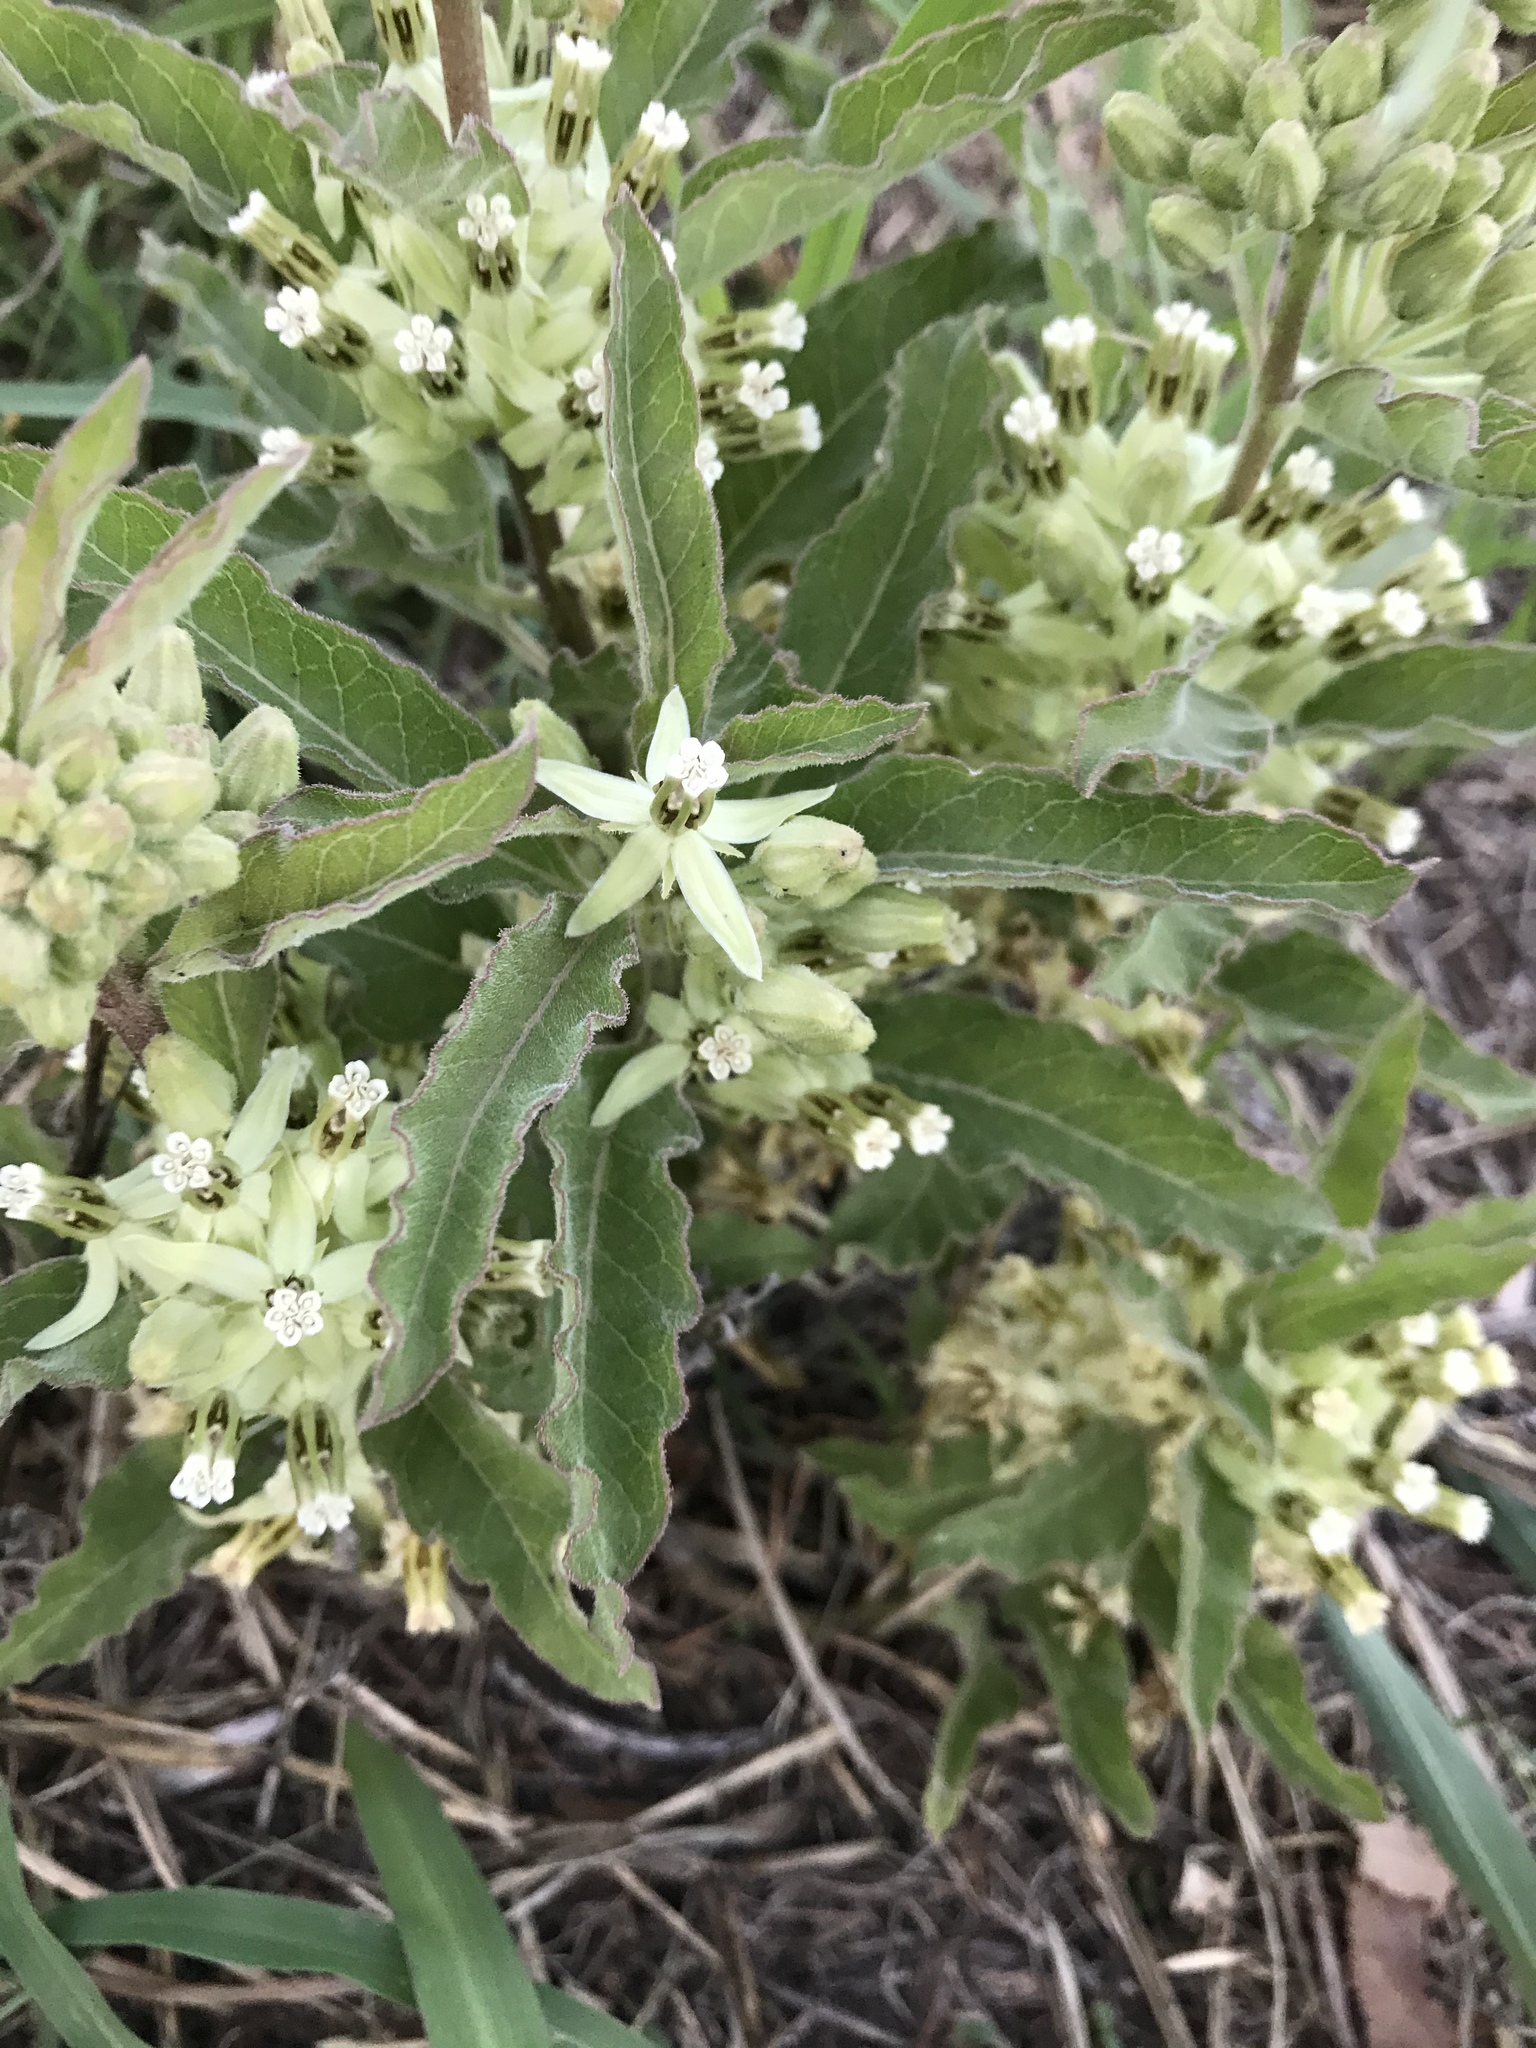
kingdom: Plantae
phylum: Tracheophyta
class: Magnoliopsida
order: Gentianales
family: Apocynaceae
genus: Asclepias
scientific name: Asclepias oenotheroides
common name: Zizotes milkweed
